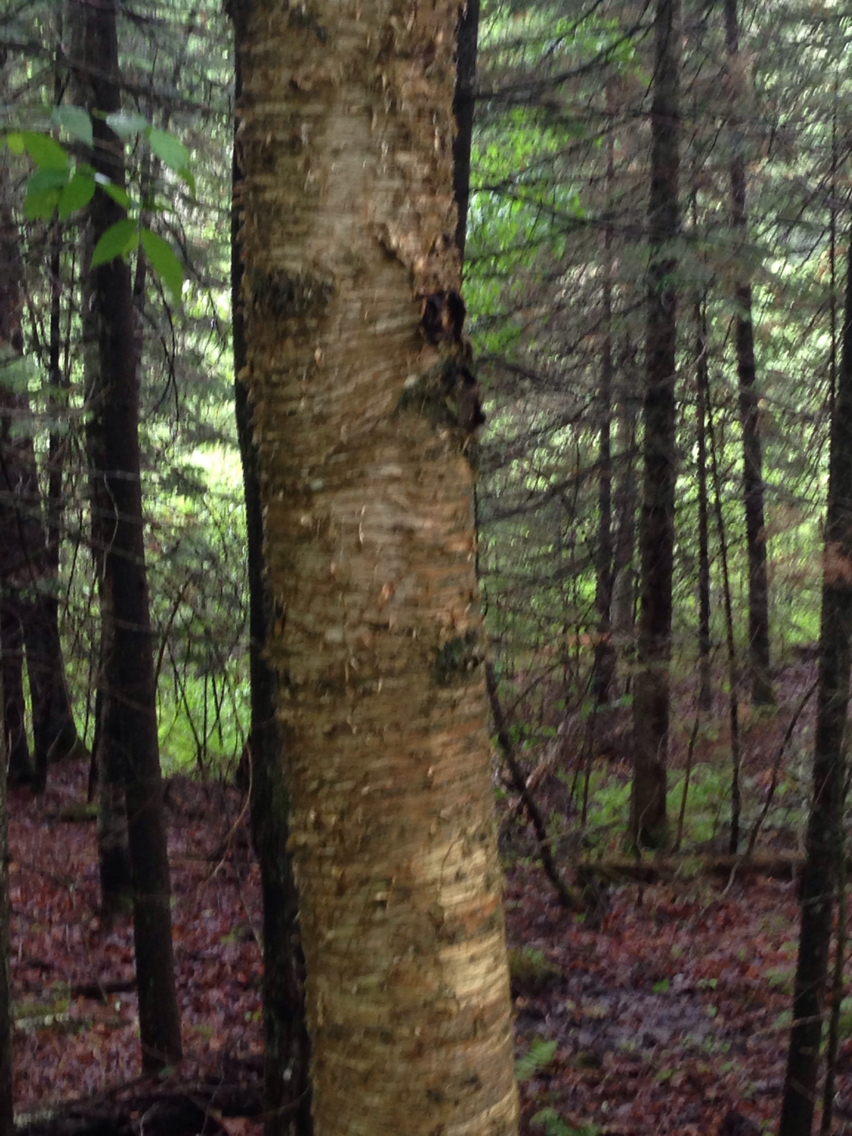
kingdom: Plantae
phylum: Tracheophyta
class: Magnoliopsida
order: Fagales
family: Betulaceae
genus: Betula
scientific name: Betula alleghaniensis
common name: Yellow birch
